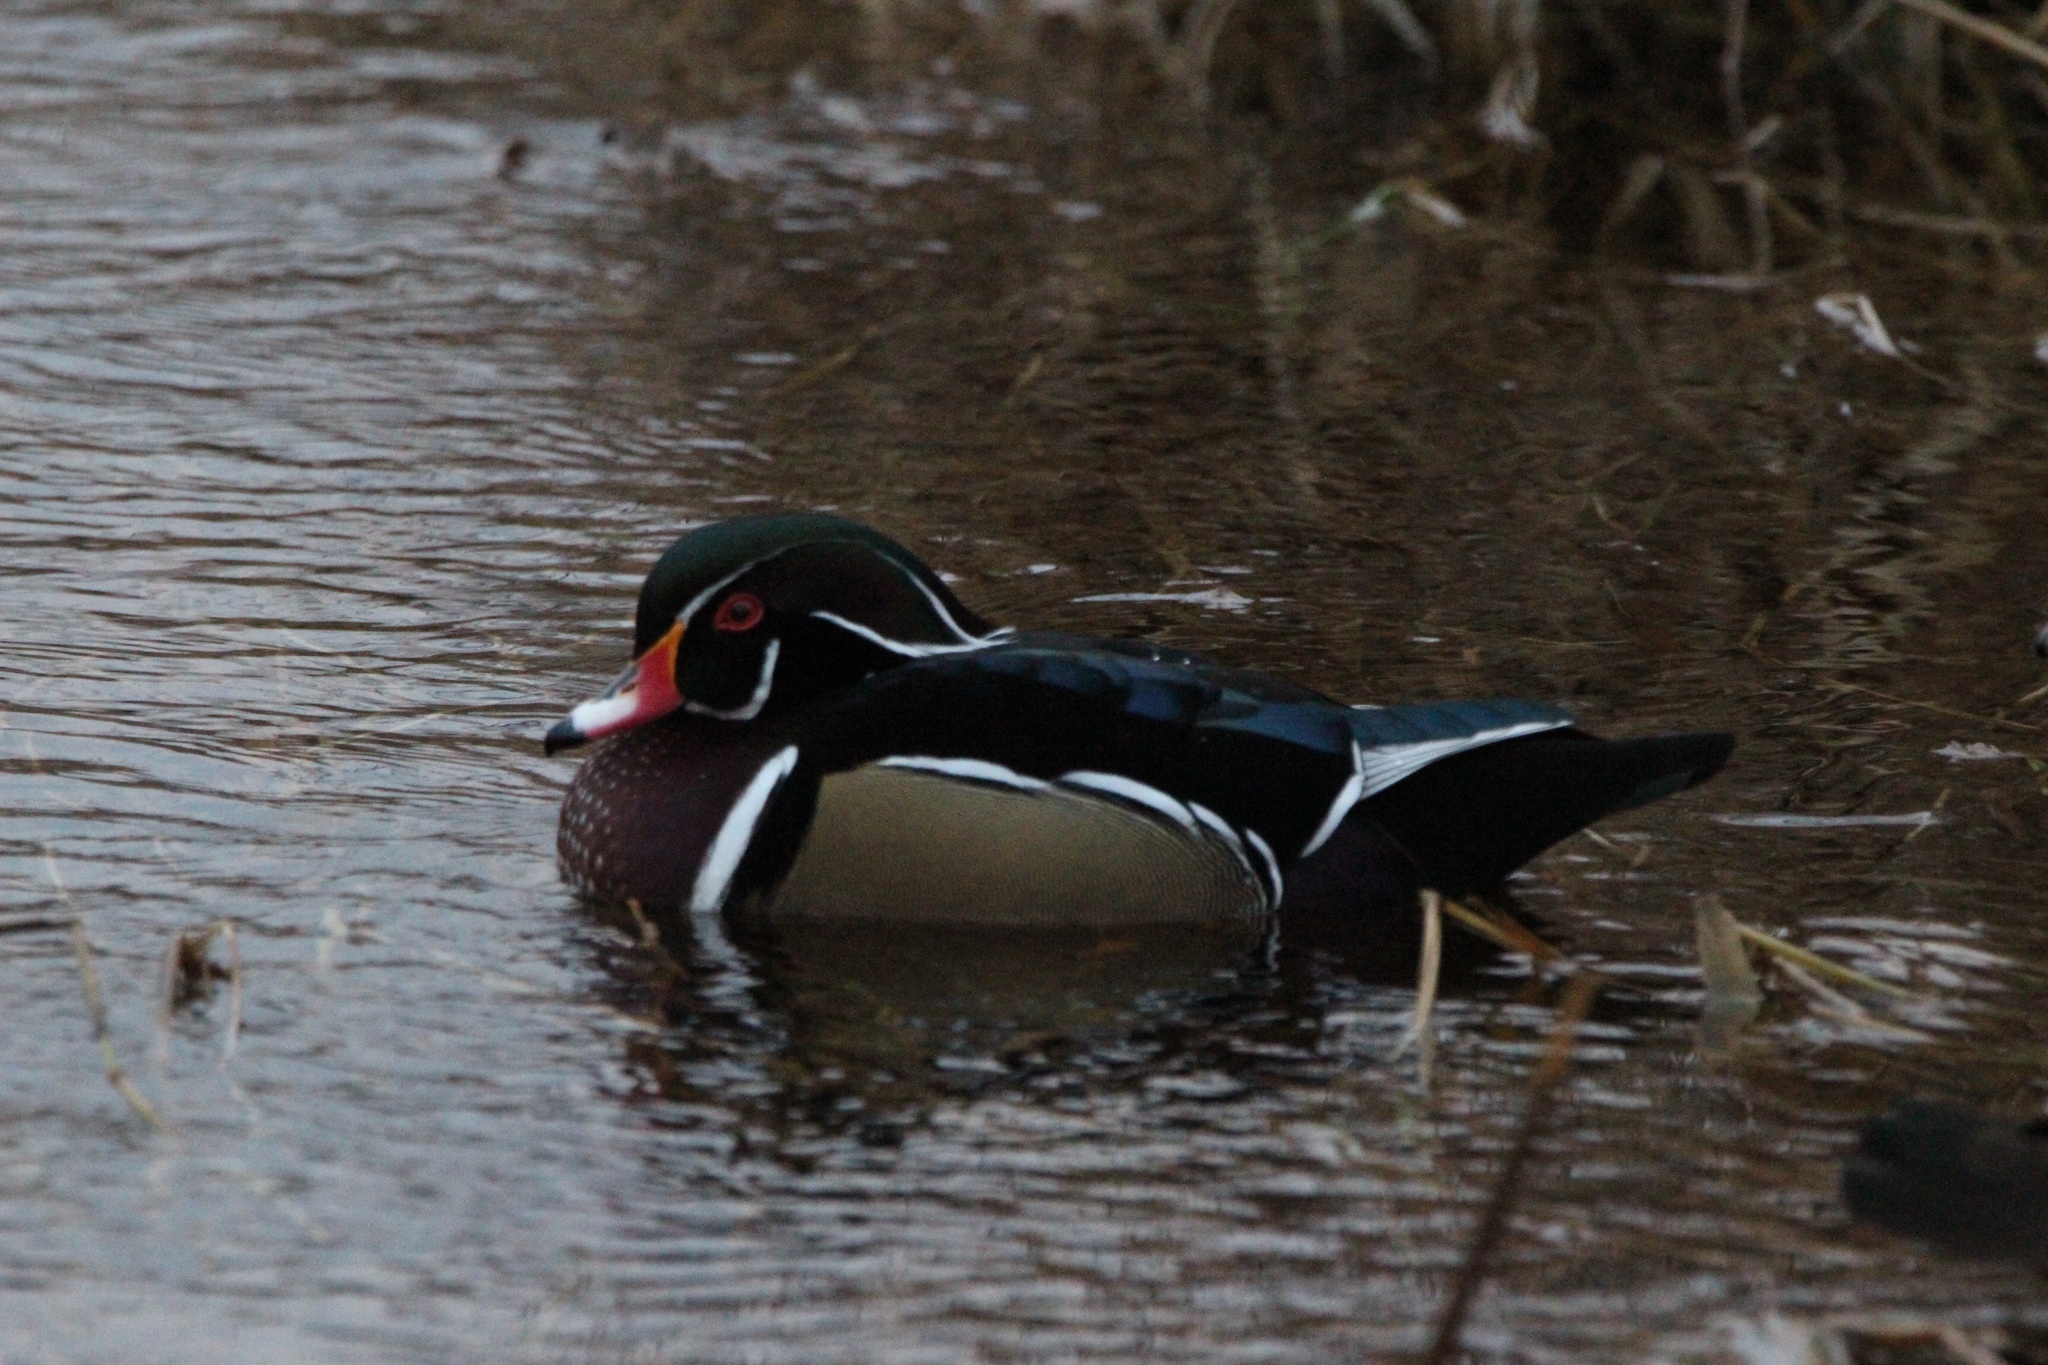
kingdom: Animalia
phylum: Chordata
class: Aves
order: Anseriformes
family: Anatidae
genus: Aix
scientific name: Aix sponsa
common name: Wood duck
